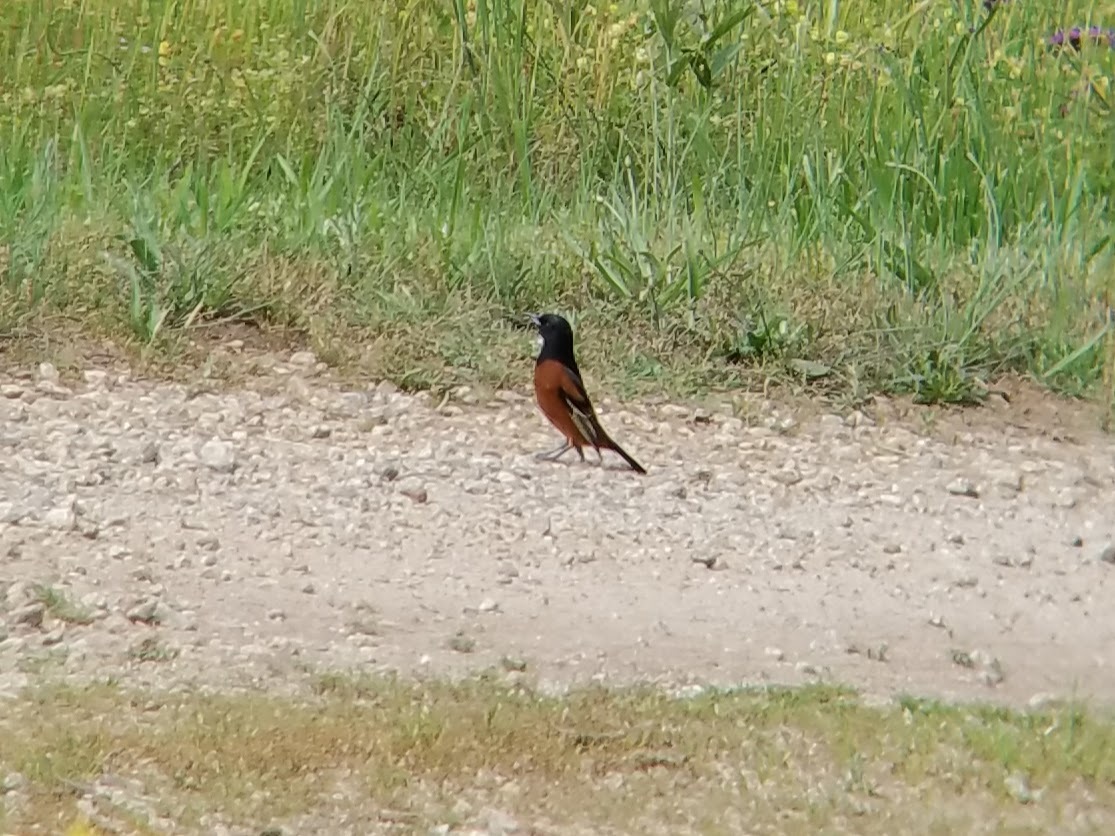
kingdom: Animalia
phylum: Chordata
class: Aves
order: Passeriformes
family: Icteridae
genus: Icterus
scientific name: Icterus spurius
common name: Orchard oriole
